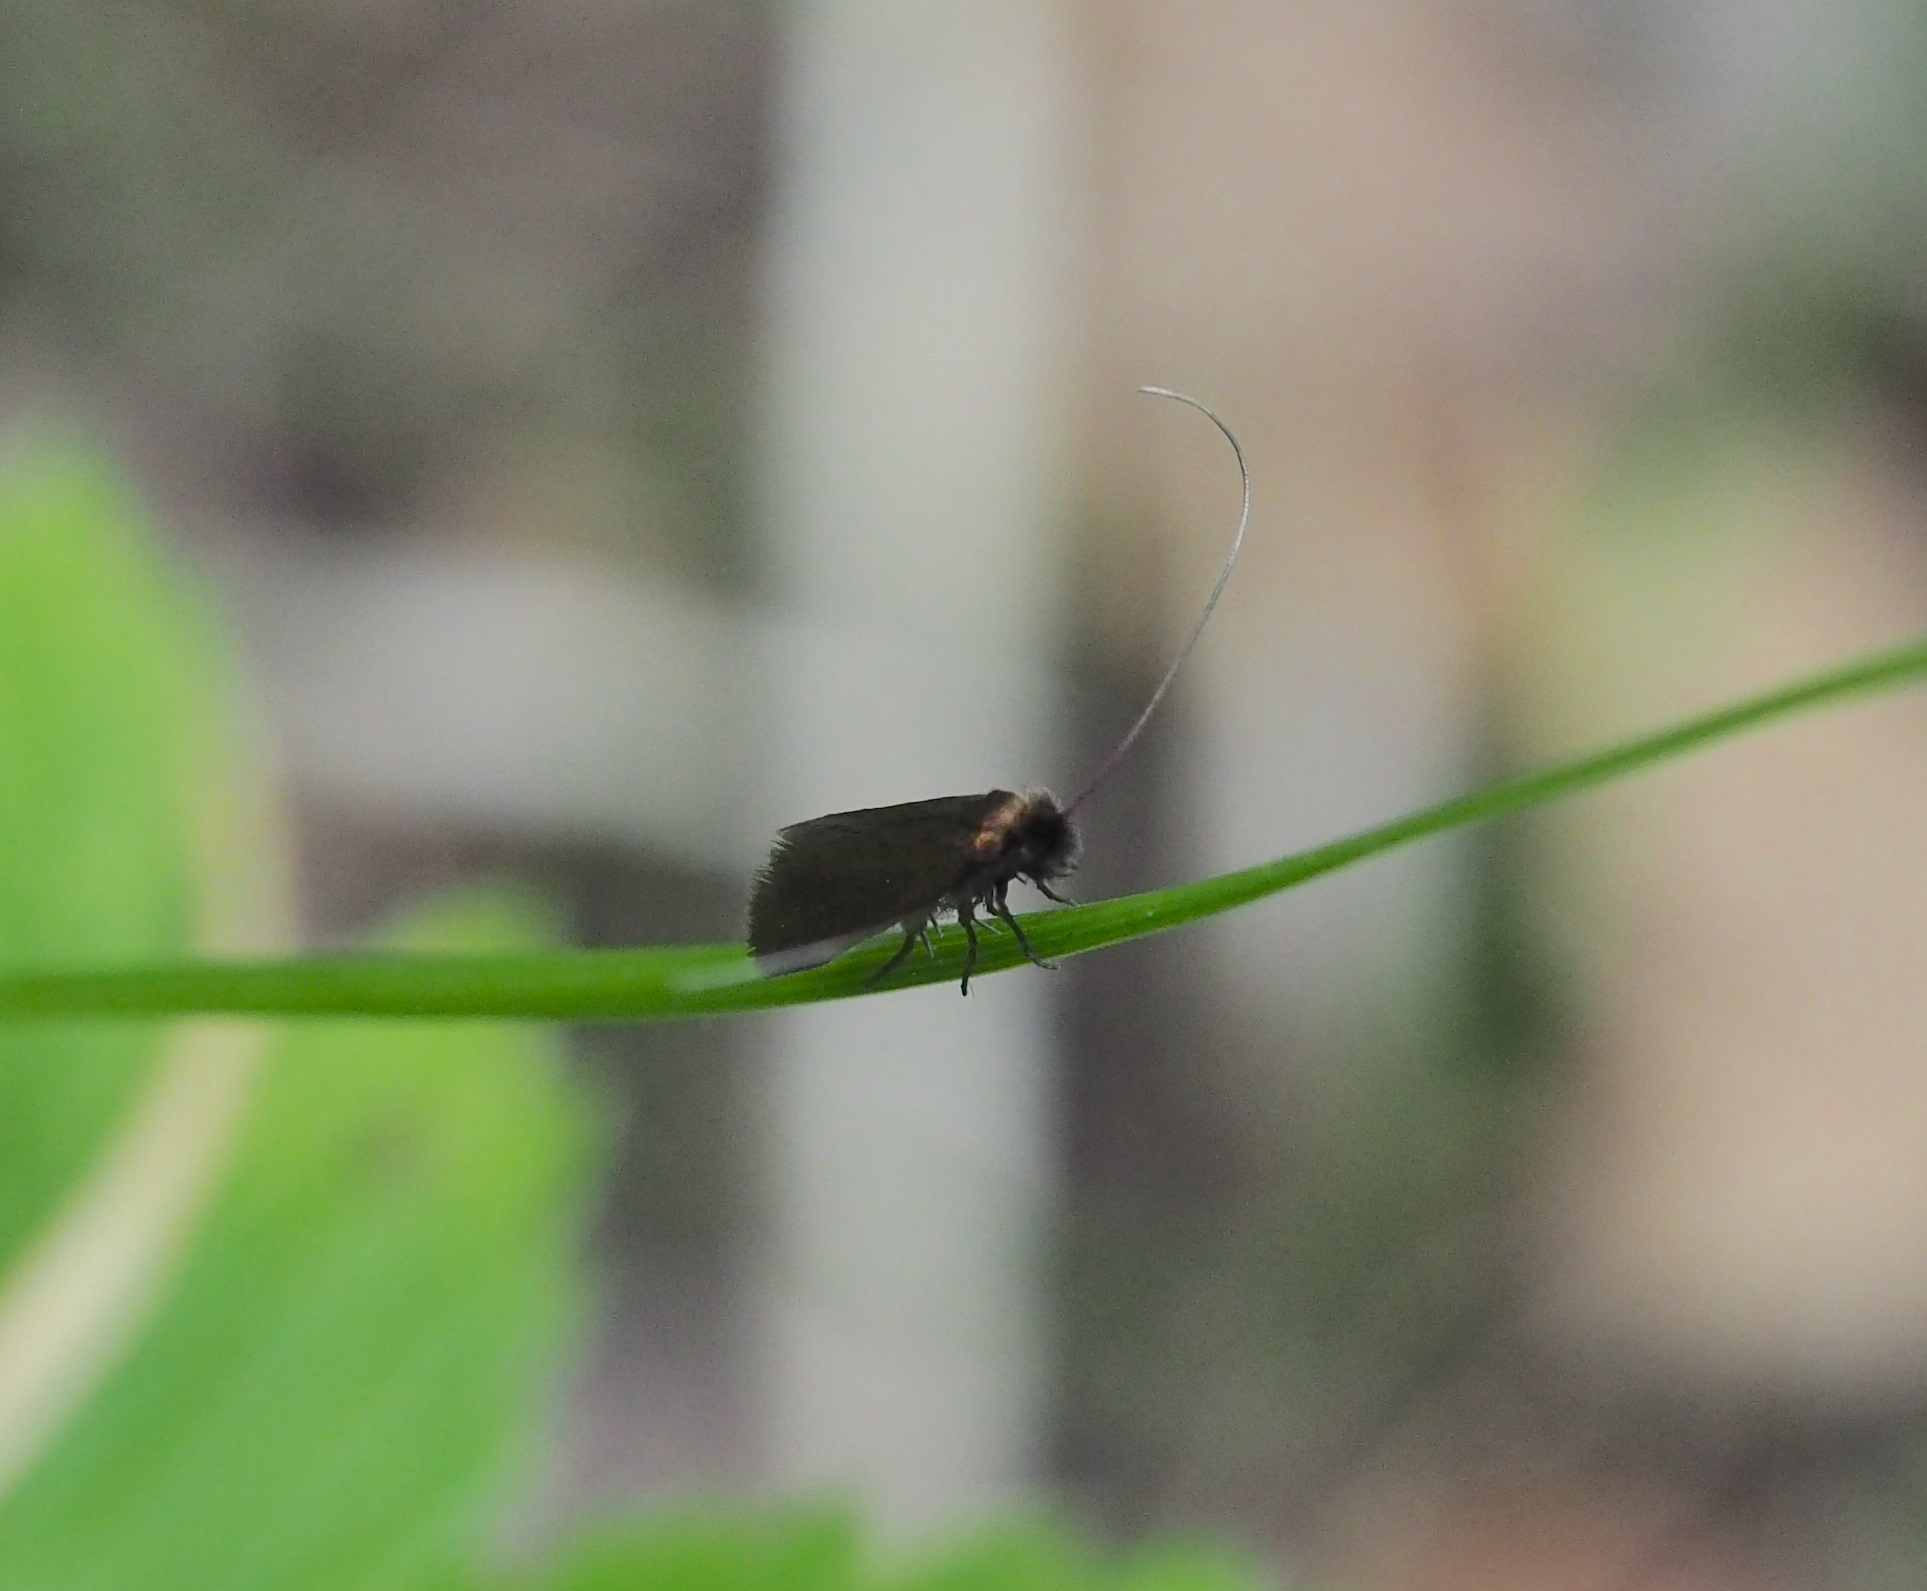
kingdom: Animalia
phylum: Arthropoda
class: Insecta
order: Lepidoptera
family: Adelidae
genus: Cauchas
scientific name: Cauchas rufimitrella
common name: Meadow long-horn
